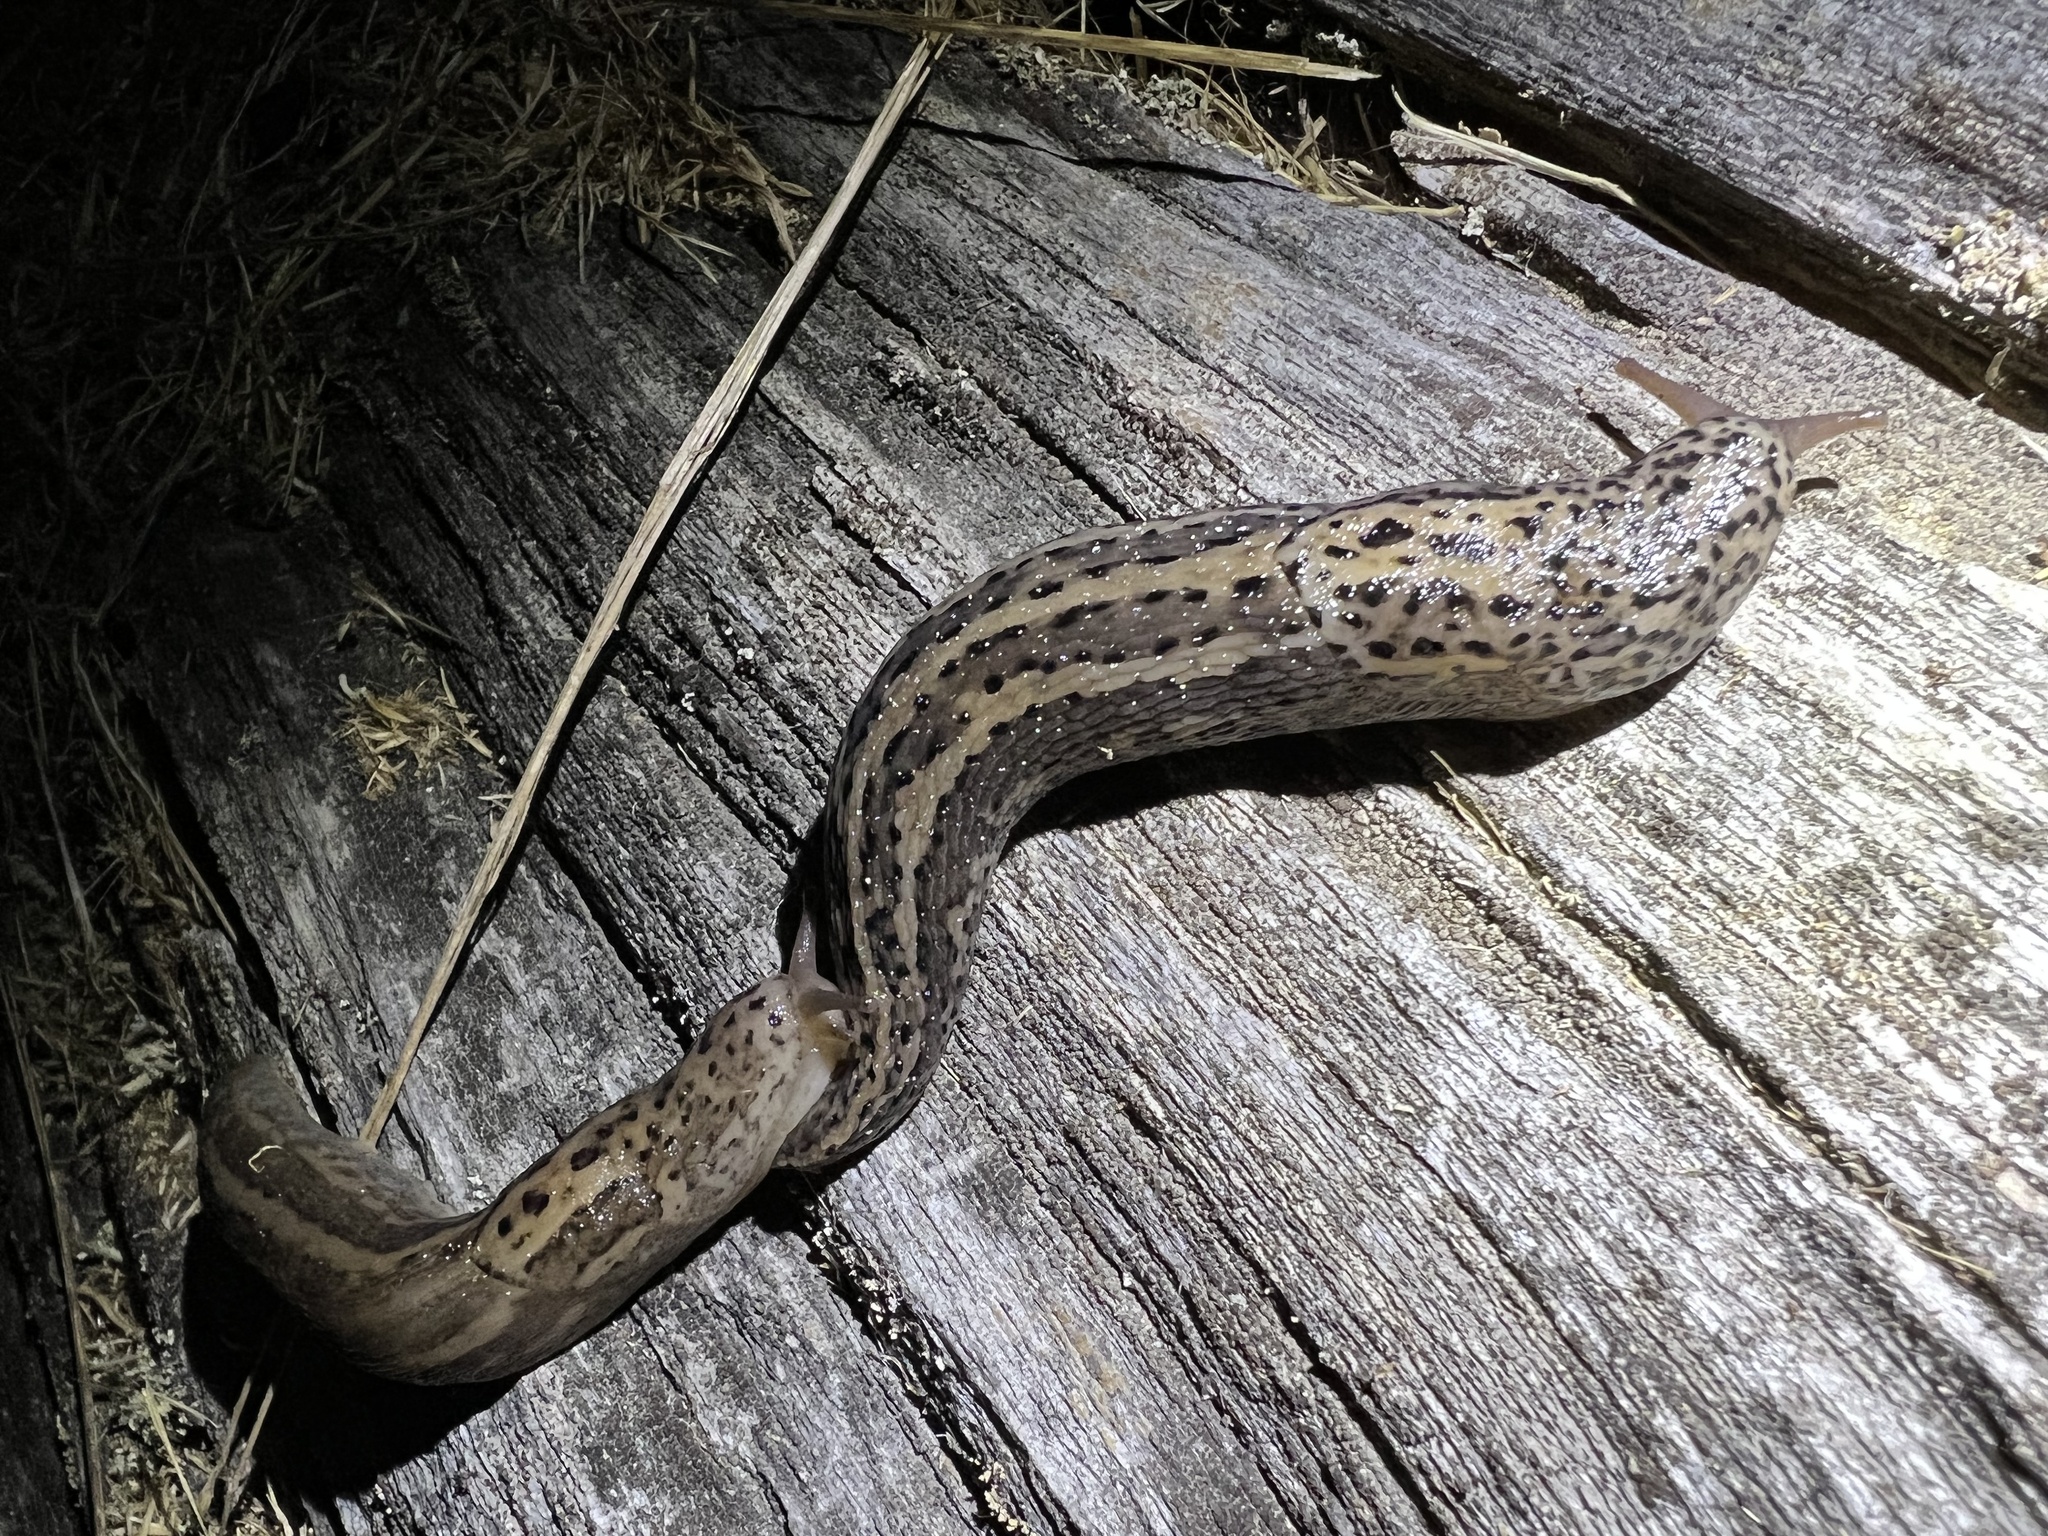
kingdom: Animalia
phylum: Mollusca
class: Gastropoda
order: Stylommatophora
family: Limacidae
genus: Limax
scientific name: Limax maximus
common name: Great grey slug
